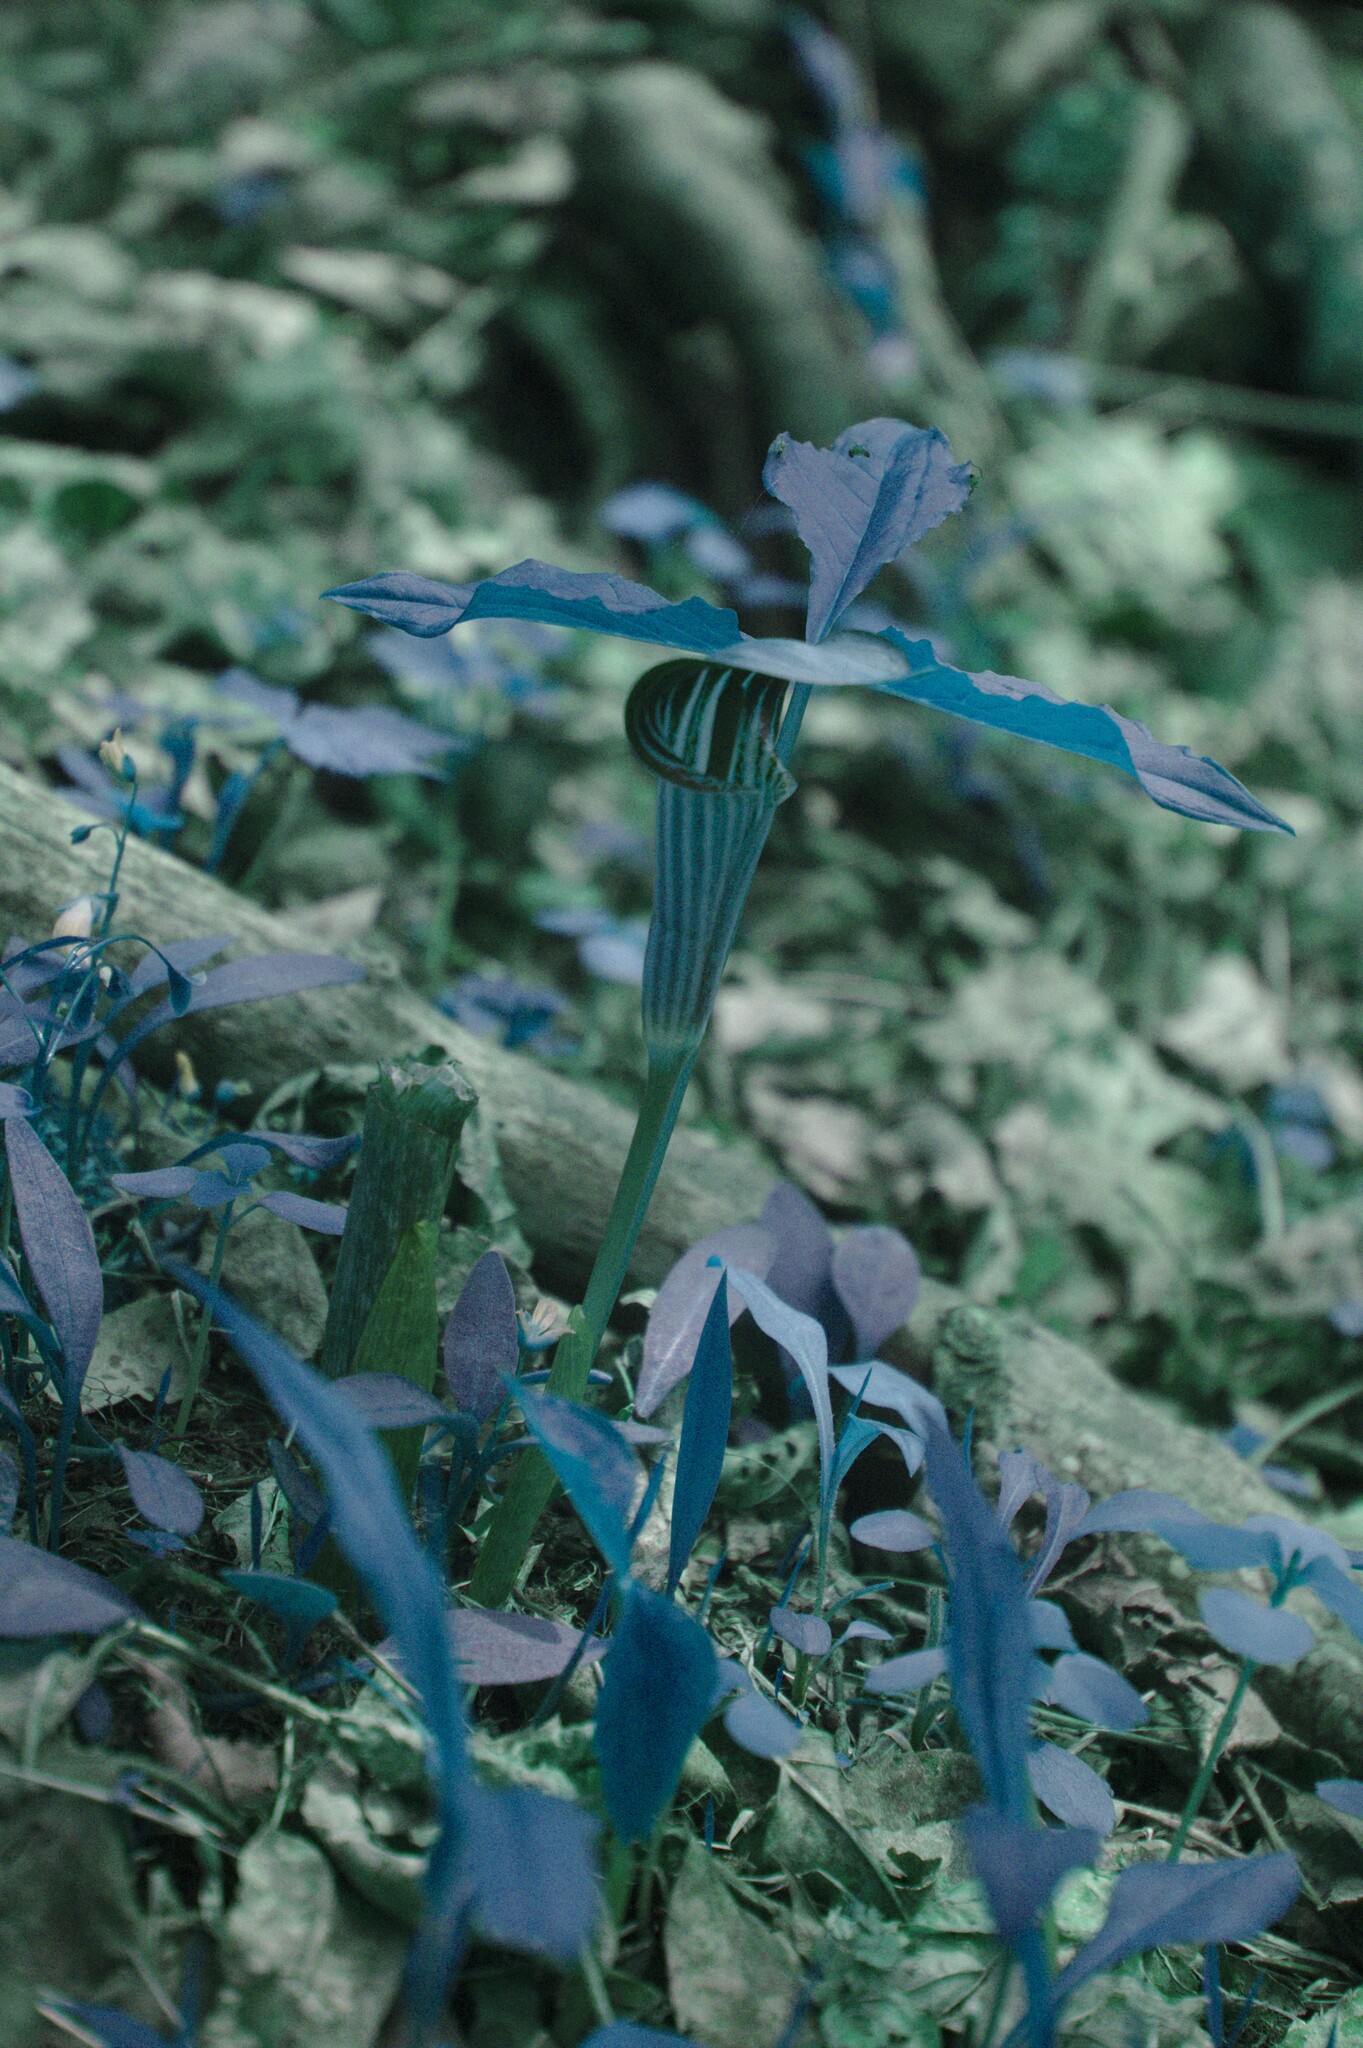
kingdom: Plantae
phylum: Tracheophyta
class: Liliopsida
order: Alismatales
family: Araceae
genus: Arisaema
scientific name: Arisaema triphyllum
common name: Jack-in-the-pulpit
